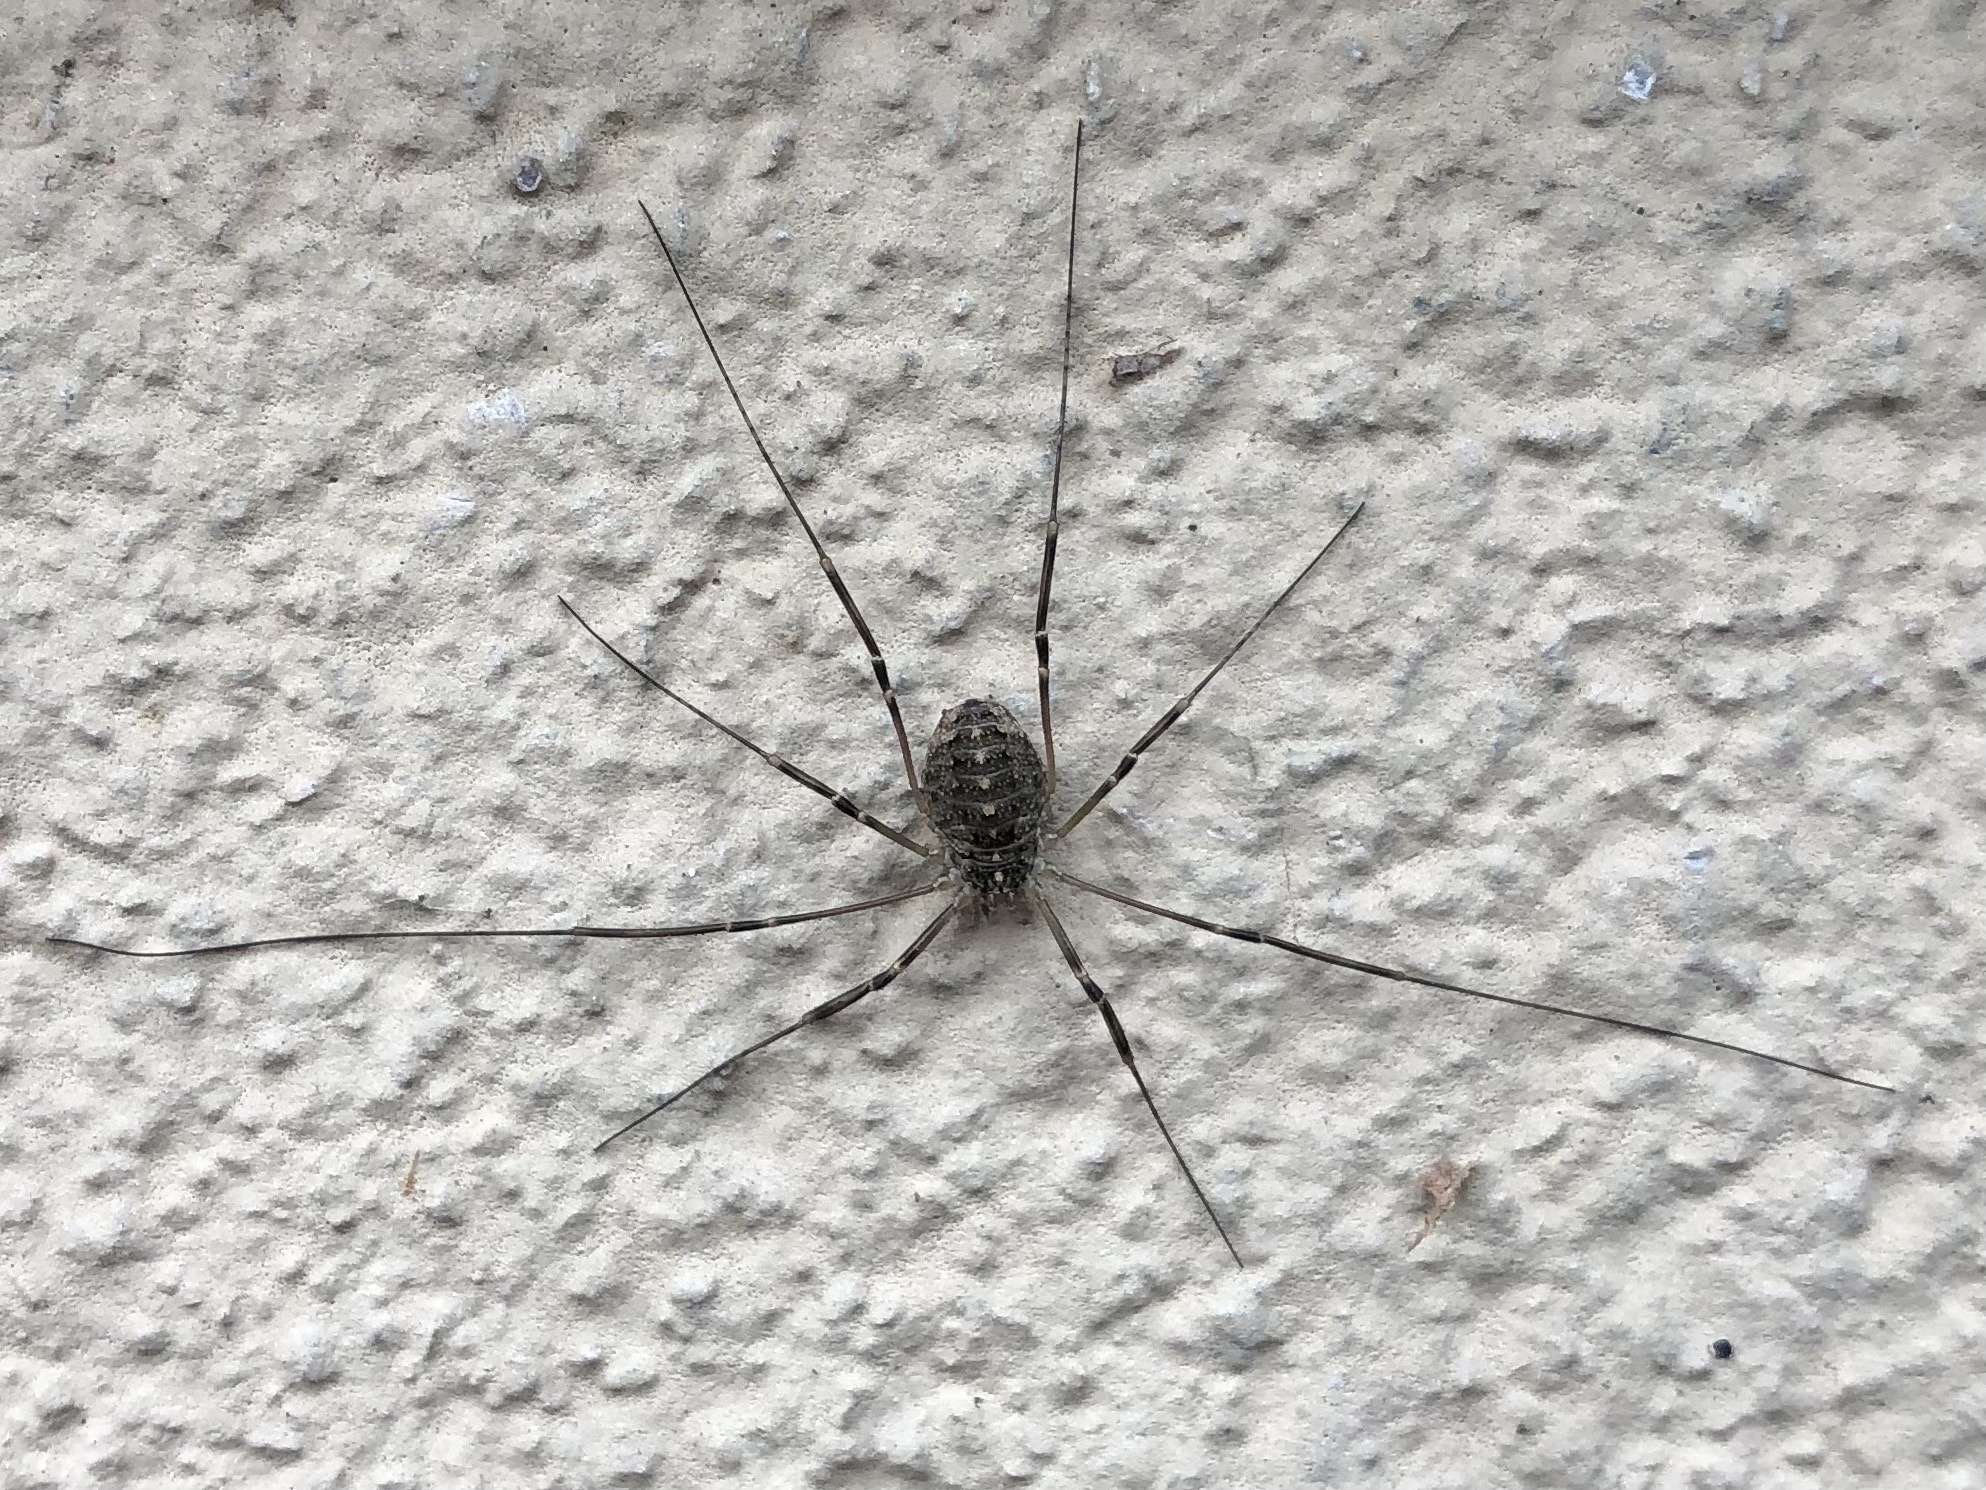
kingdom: Animalia
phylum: Arthropoda
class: Arachnida
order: Opiliones
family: Phalangiidae
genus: Opilio
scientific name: Opilio saxatilis
